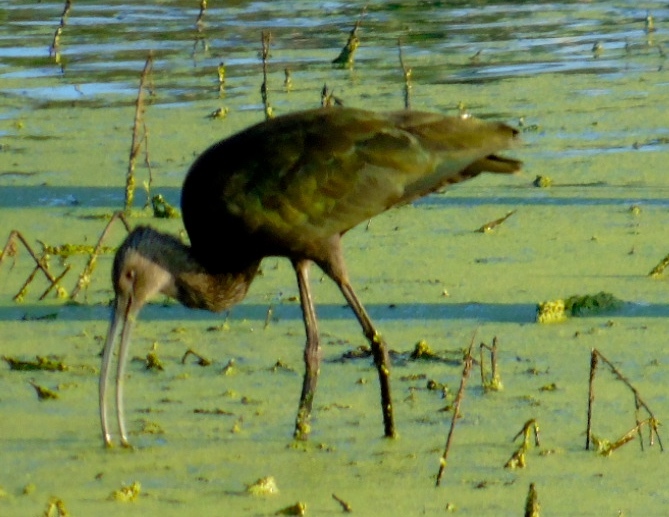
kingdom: Animalia
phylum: Chordata
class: Aves
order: Pelecaniformes
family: Threskiornithidae
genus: Plegadis
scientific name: Plegadis chihi
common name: White-faced ibis
